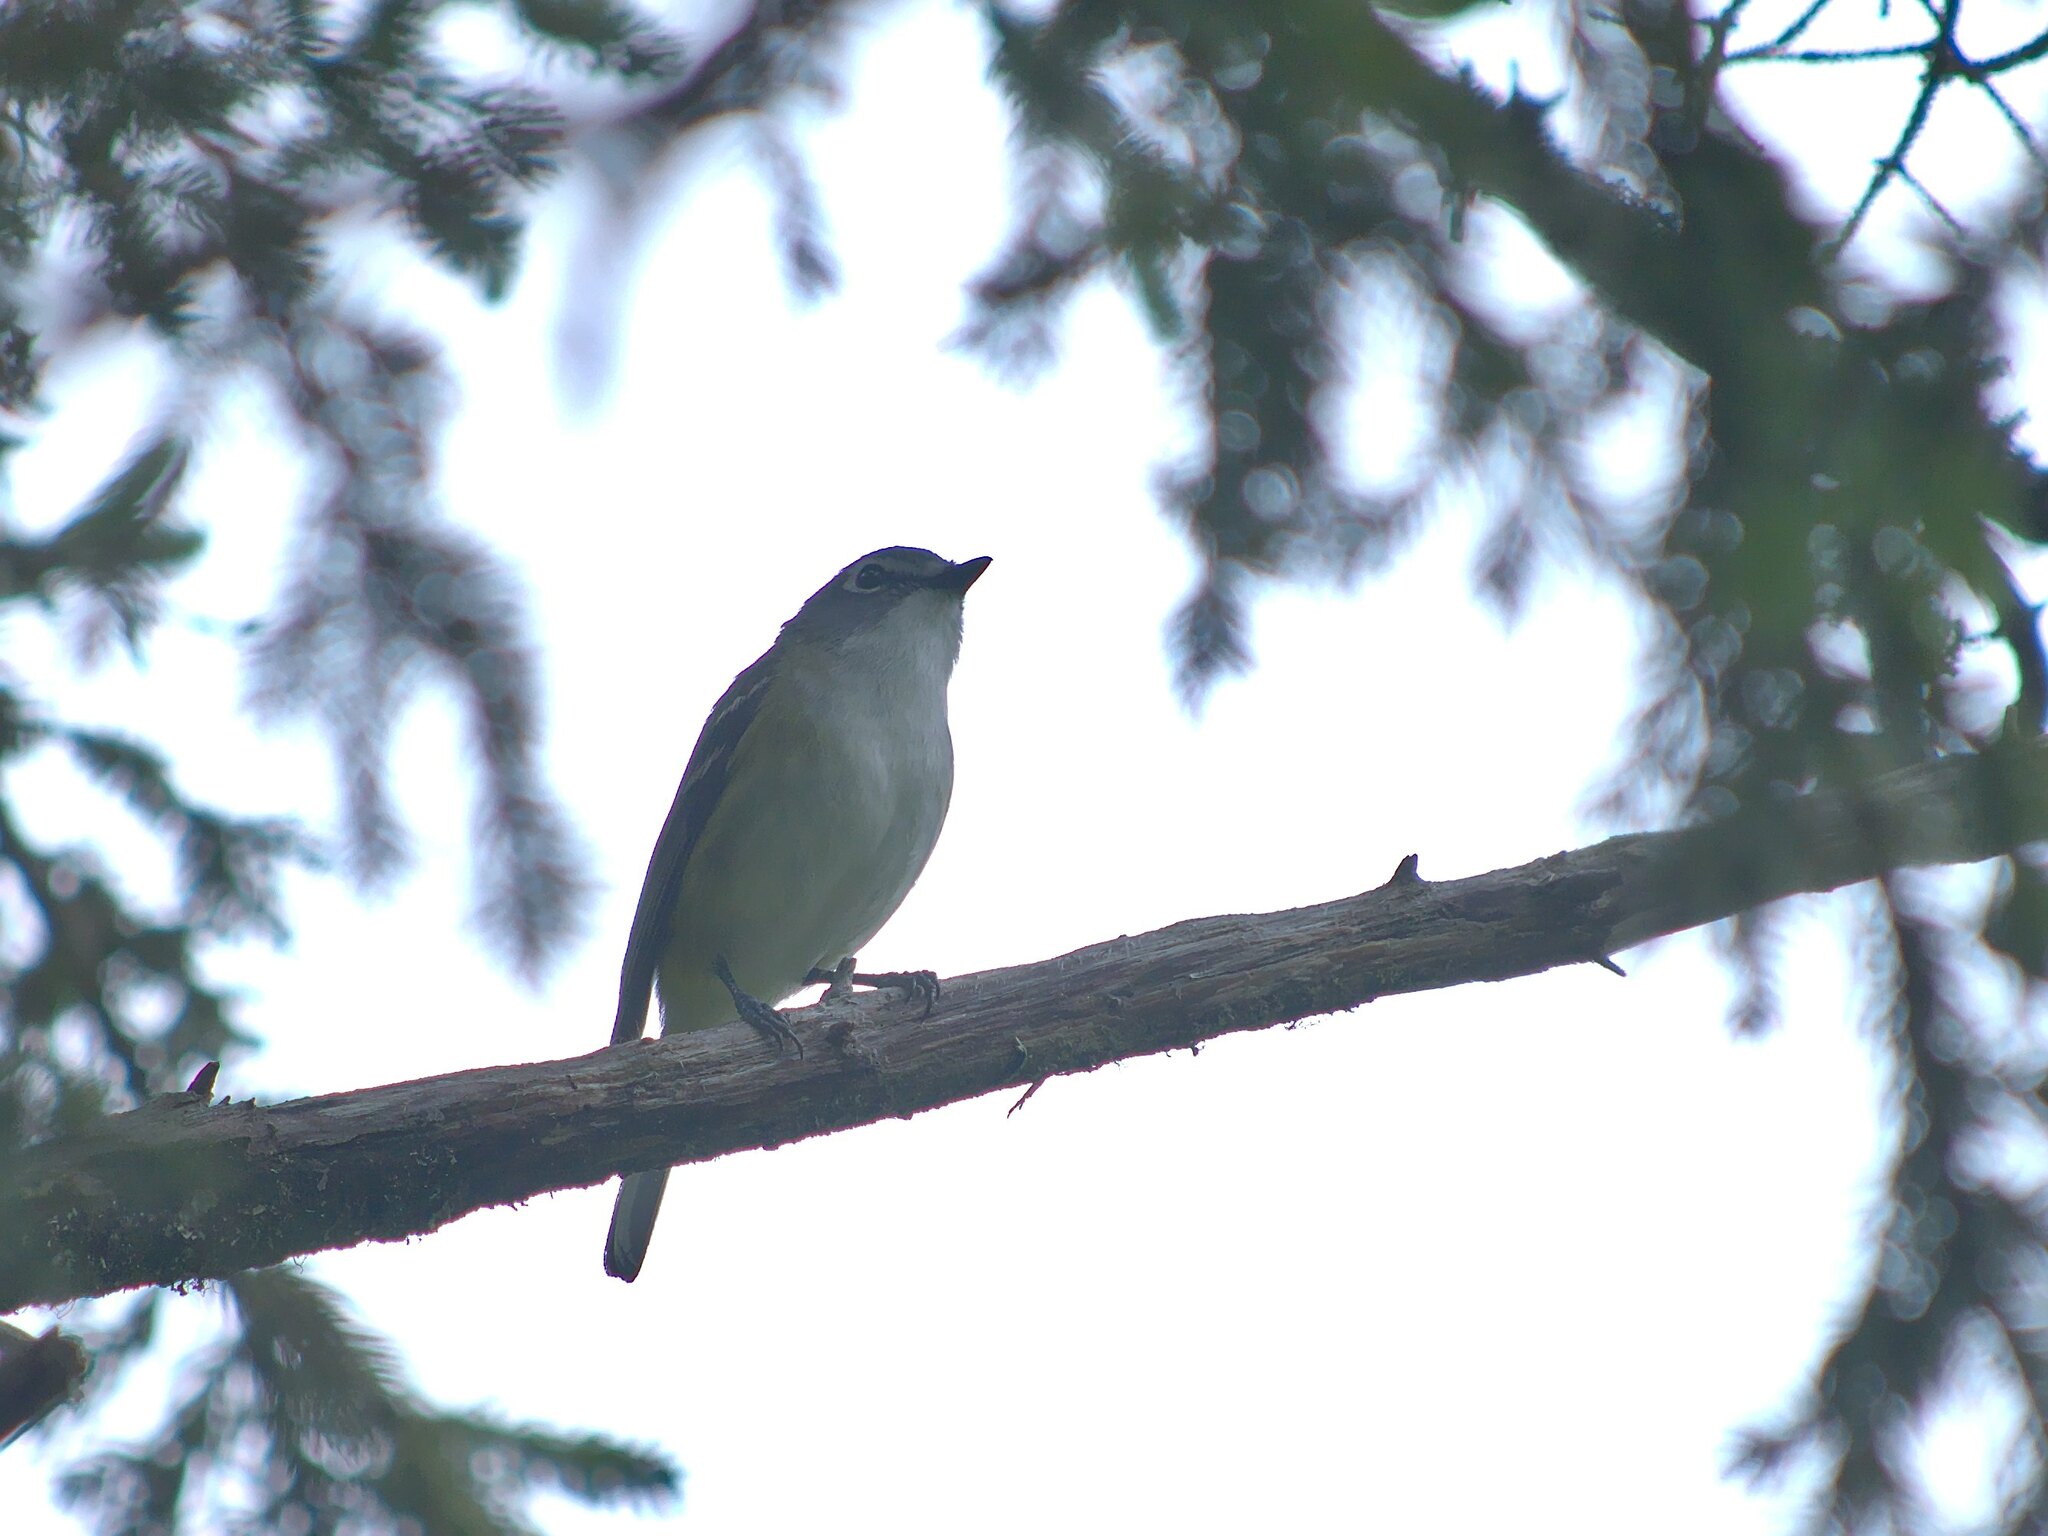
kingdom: Animalia
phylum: Chordata
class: Aves
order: Passeriformes
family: Vireonidae
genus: Vireo
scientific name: Vireo solitarius
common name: Blue-headed vireo
